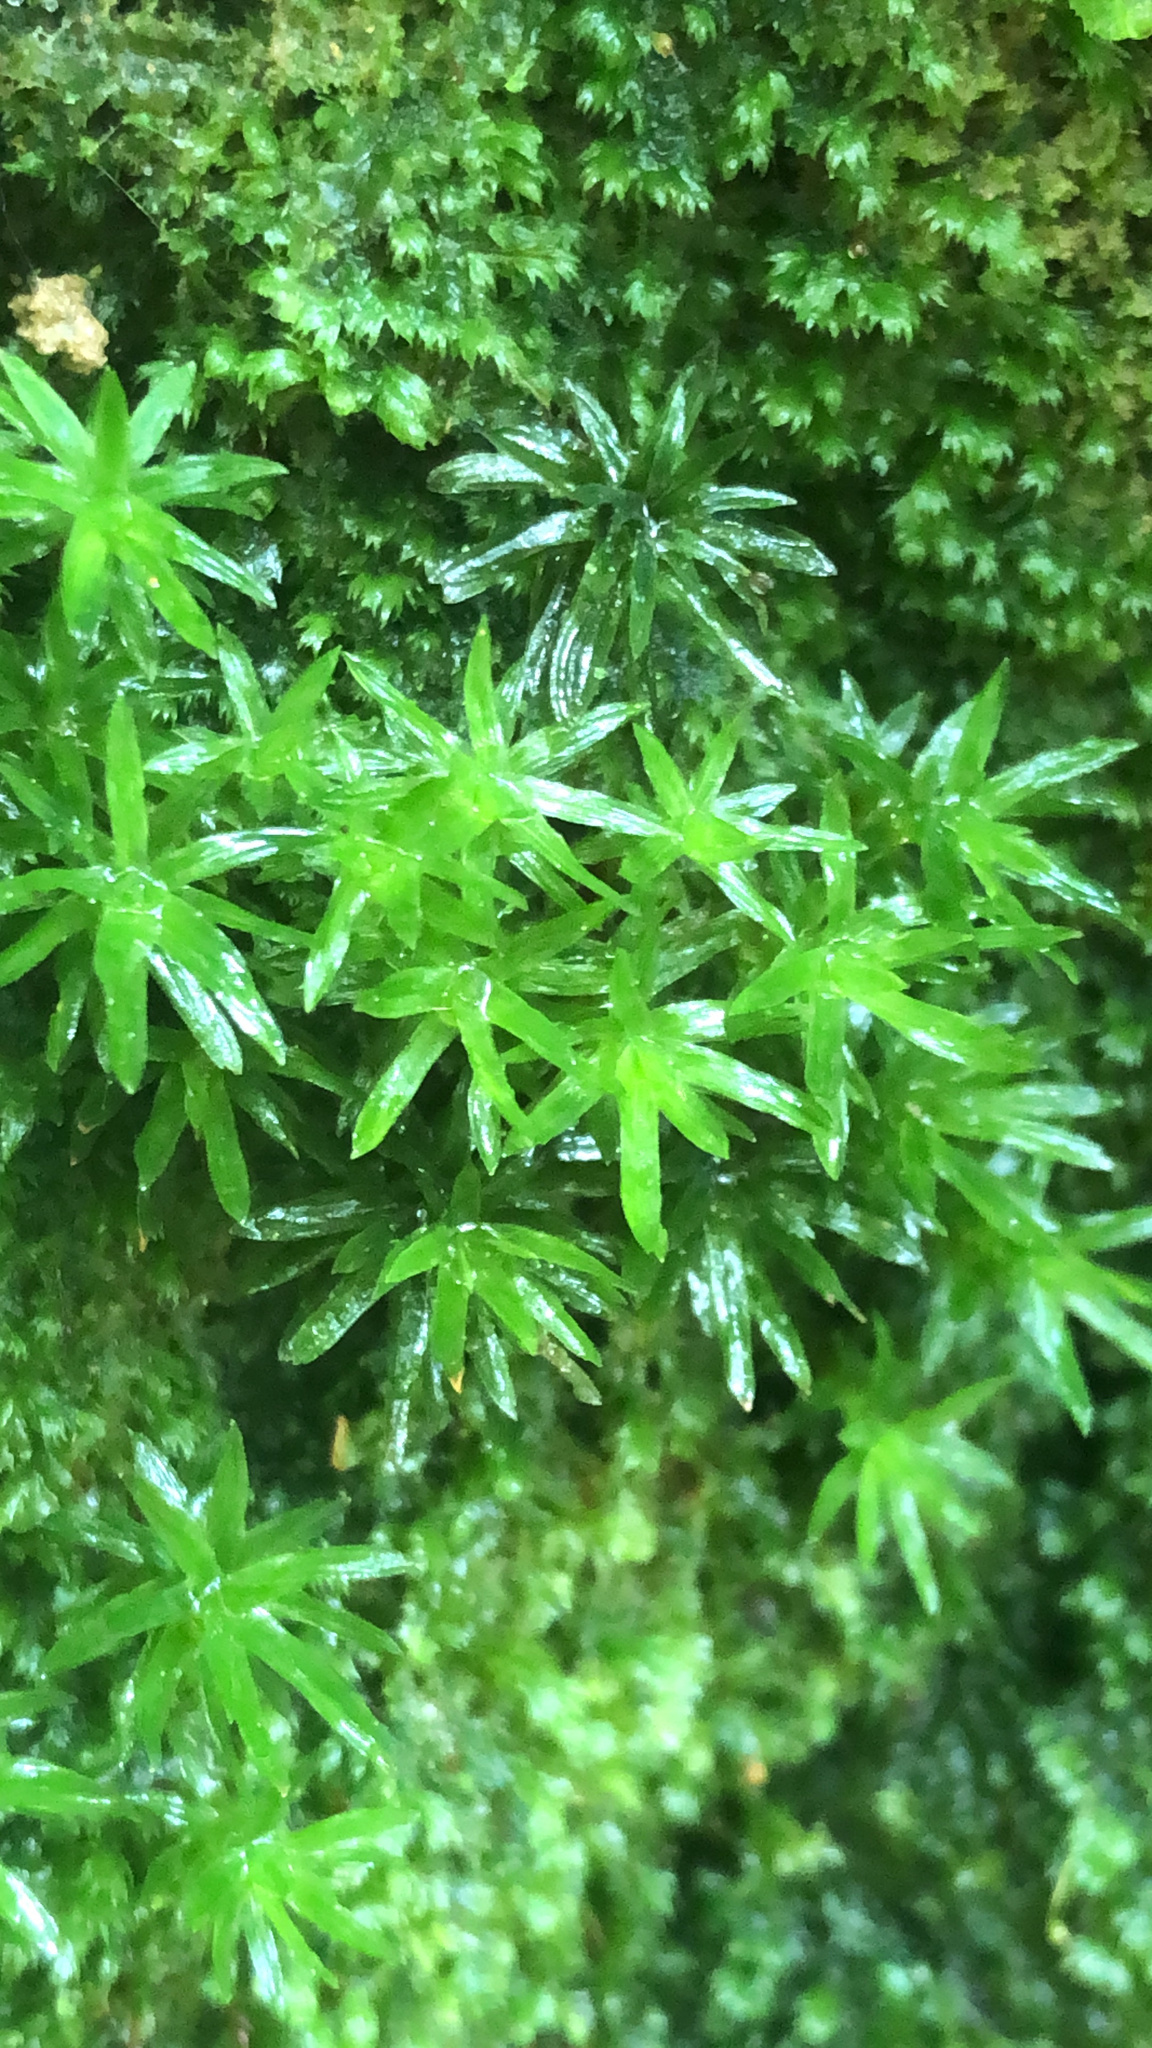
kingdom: Plantae
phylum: Bryophyta
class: Polytrichopsida
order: Polytrichales
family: Polytrichaceae
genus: Atrichum
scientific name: Atrichum androgynum
